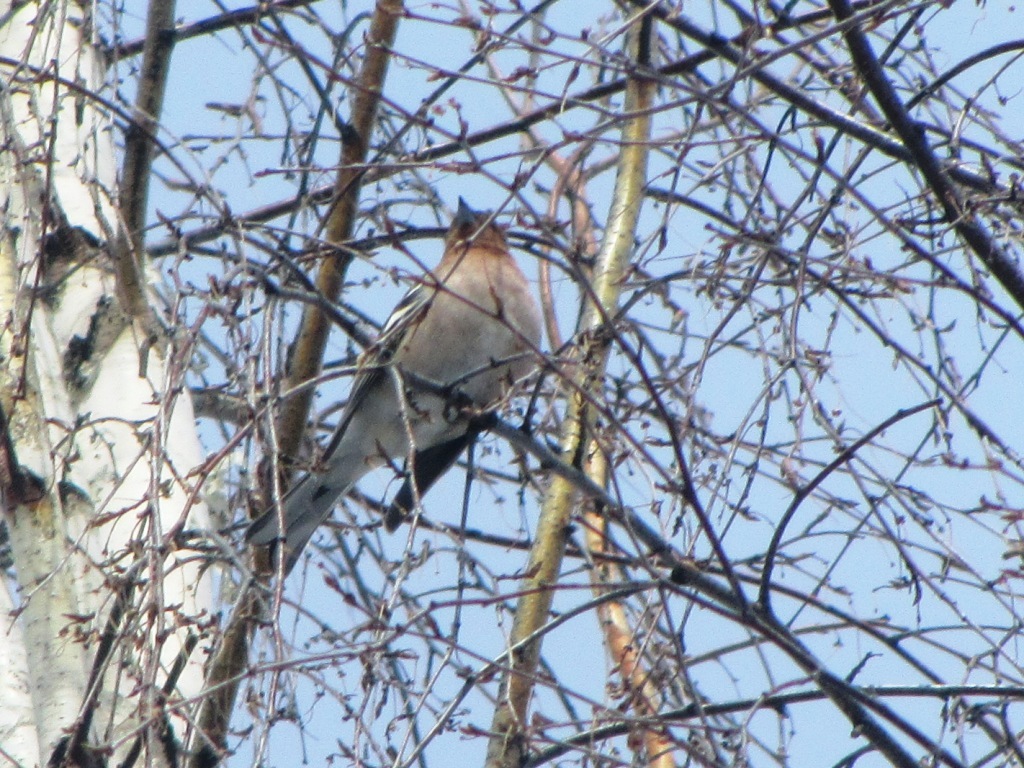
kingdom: Animalia
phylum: Chordata
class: Aves
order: Passeriformes
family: Fringillidae
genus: Fringilla
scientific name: Fringilla coelebs
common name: Common chaffinch
